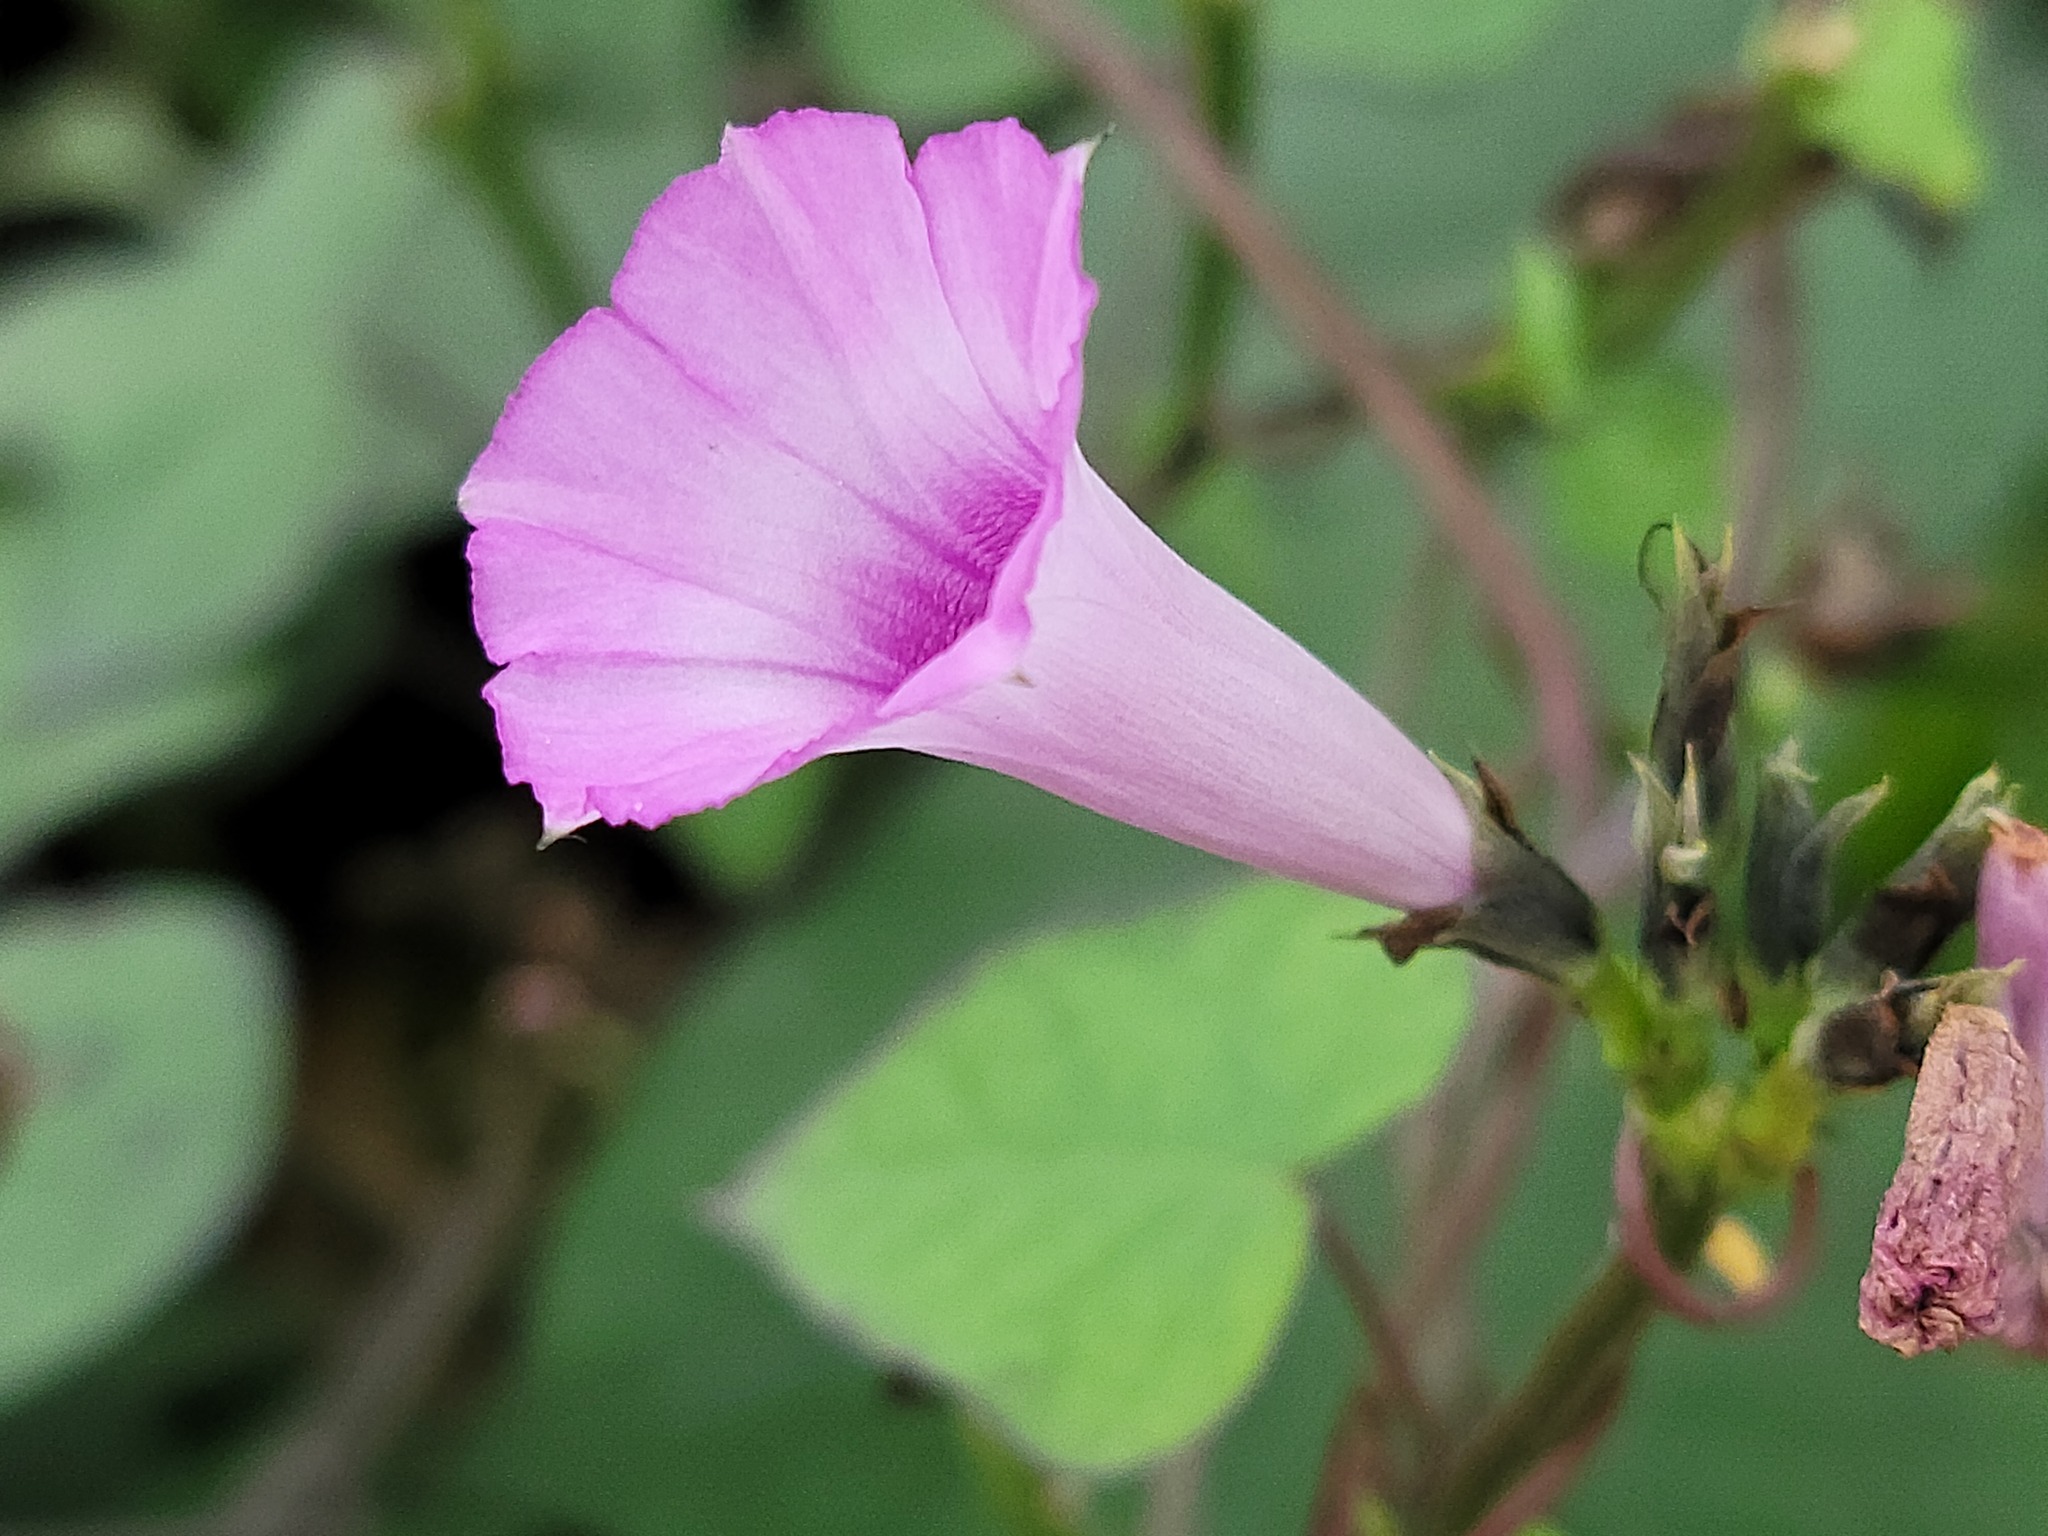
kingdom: Plantae
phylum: Tracheophyta
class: Magnoliopsida
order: Solanales
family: Convolvulaceae
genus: Ipomoea
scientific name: Ipomoea triloba
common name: Little-bell
